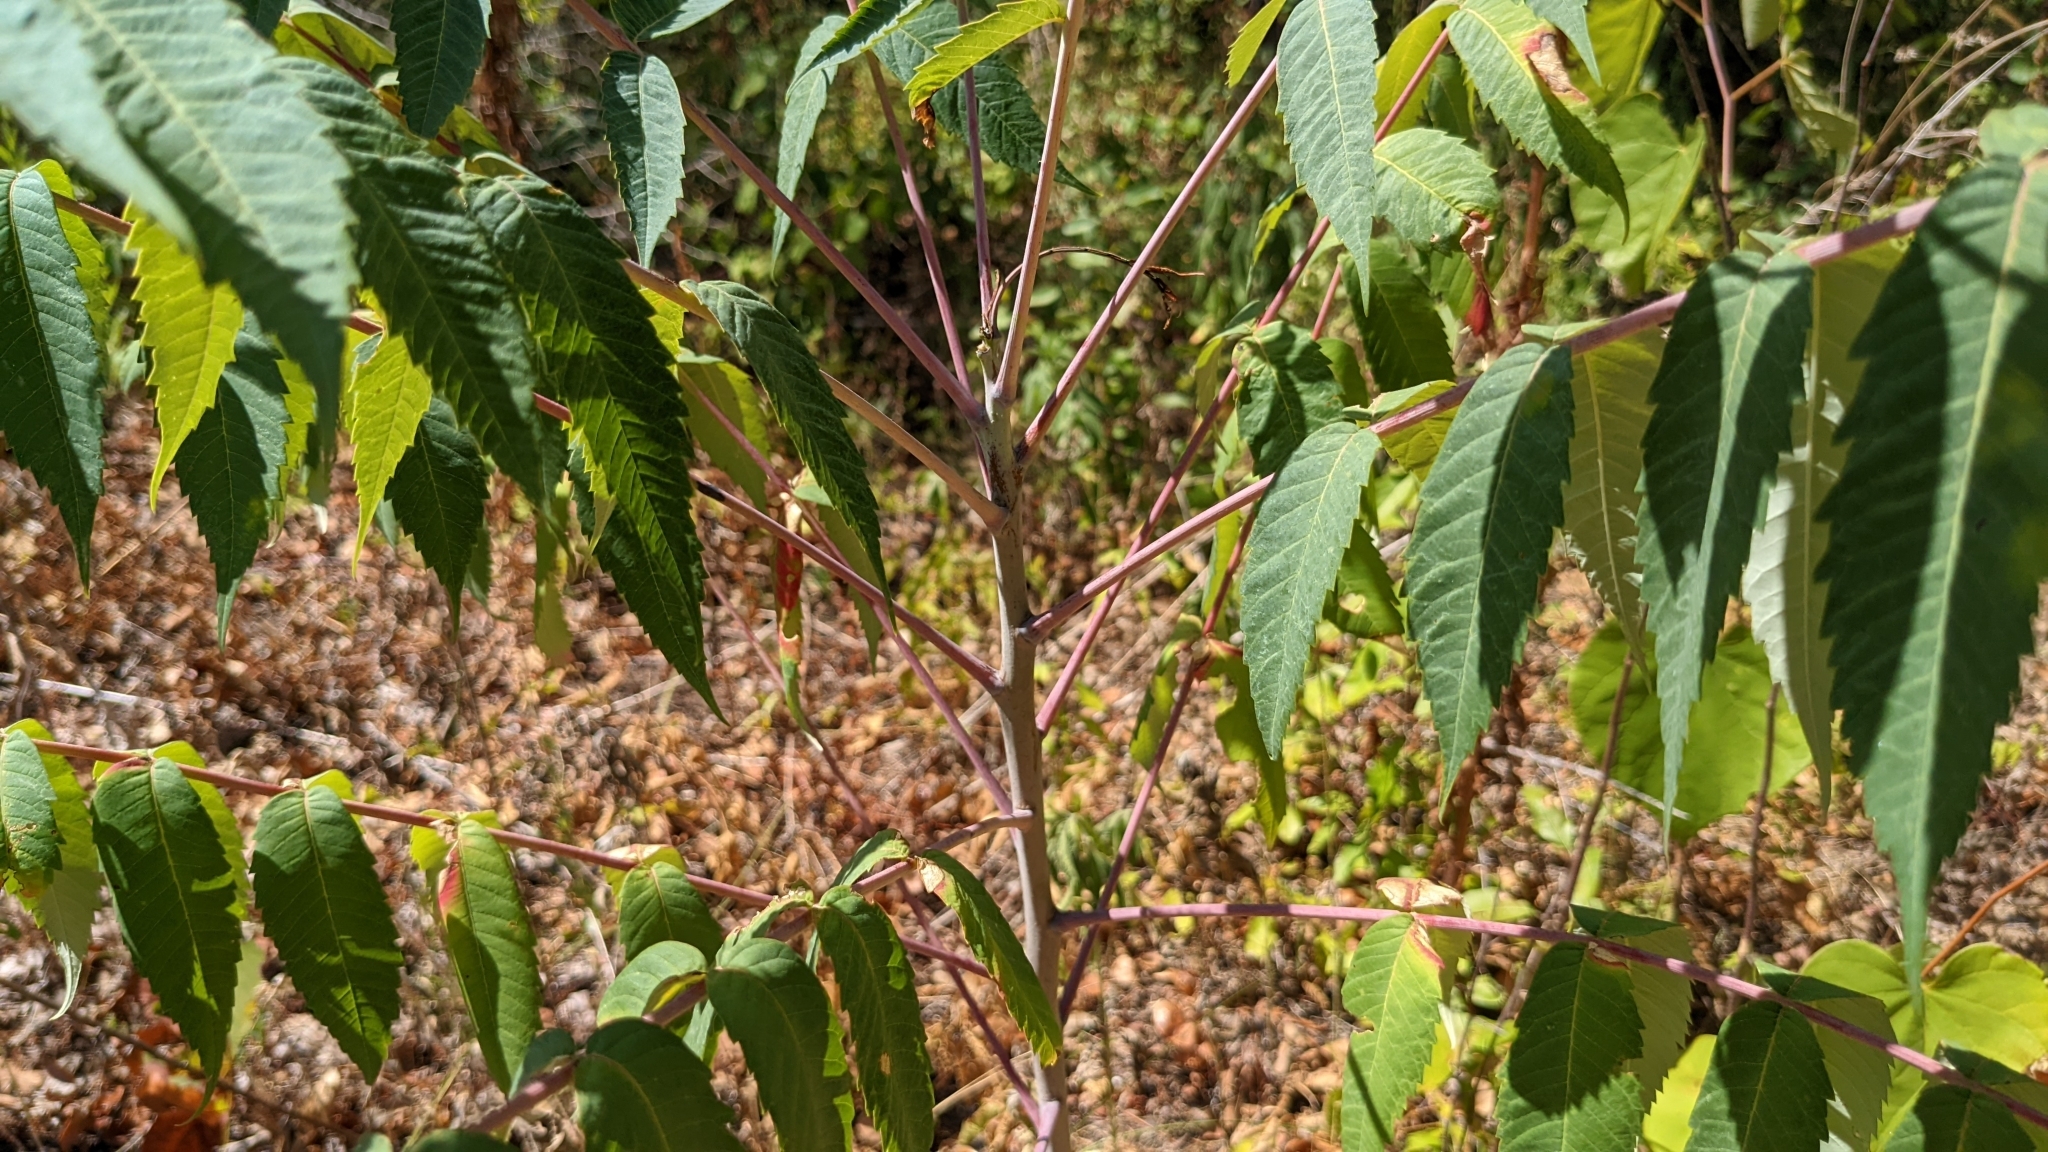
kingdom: Plantae
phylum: Tracheophyta
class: Magnoliopsida
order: Sapindales
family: Anacardiaceae
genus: Rhus
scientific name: Rhus glabra
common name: Scarlet sumac
